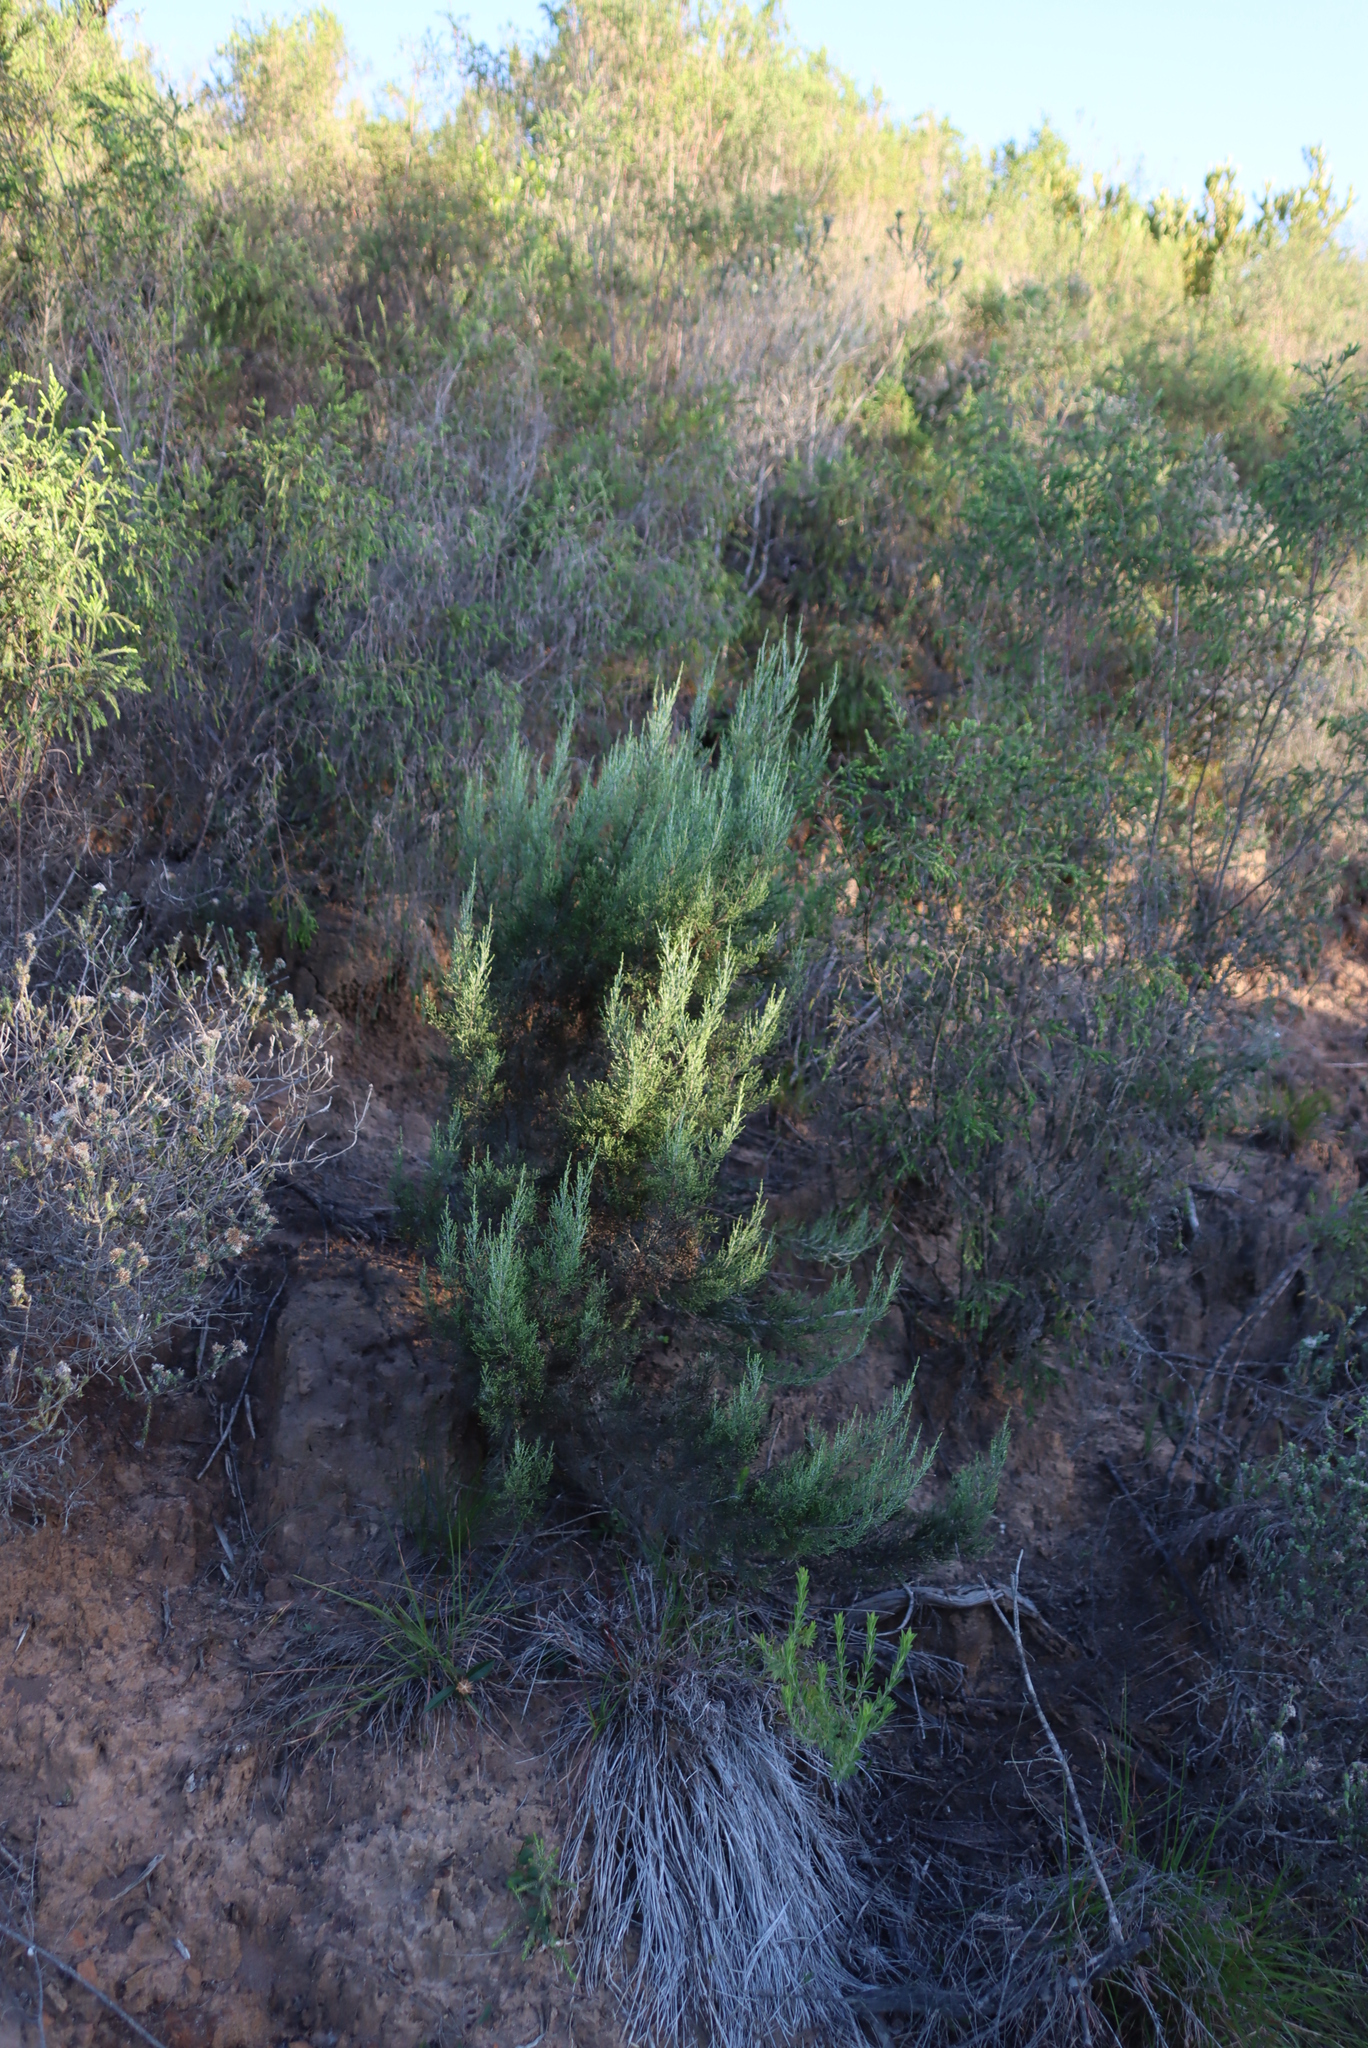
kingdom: Plantae
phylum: Tracheophyta
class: Magnoliopsida
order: Asterales
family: Asteraceae
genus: Dicerothamnus
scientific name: Dicerothamnus rhinocerotis
